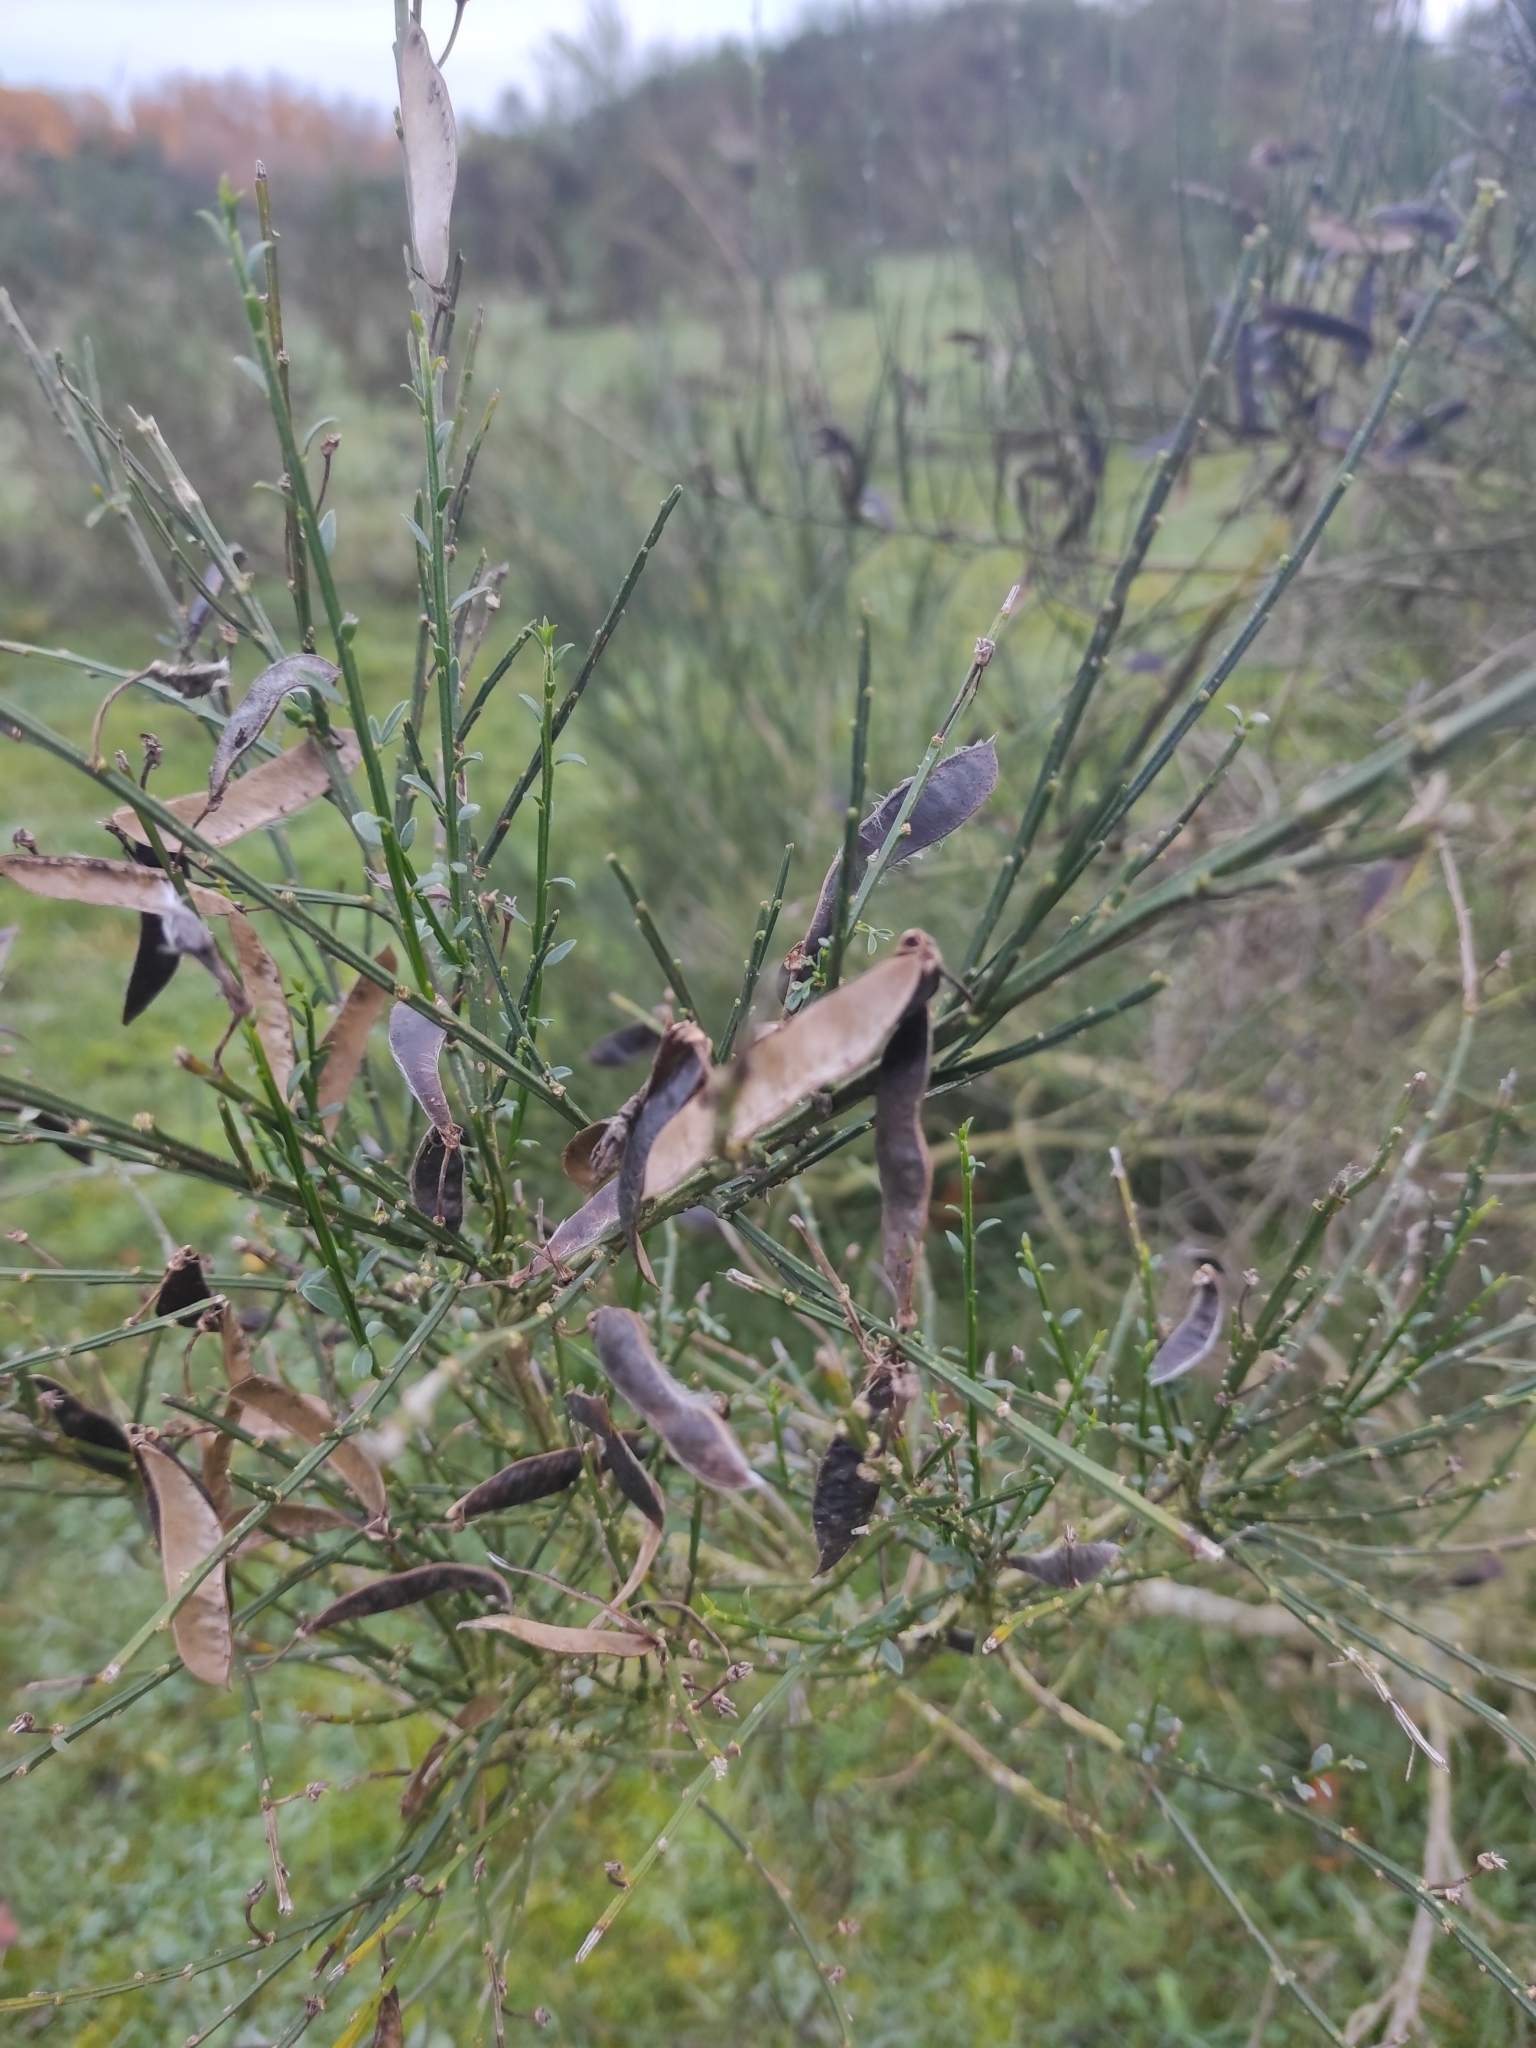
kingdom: Plantae
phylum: Tracheophyta
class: Magnoliopsida
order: Fabales
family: Fabaceae
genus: Cytisus
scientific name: Cytisus scoparius
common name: Scotch broom
